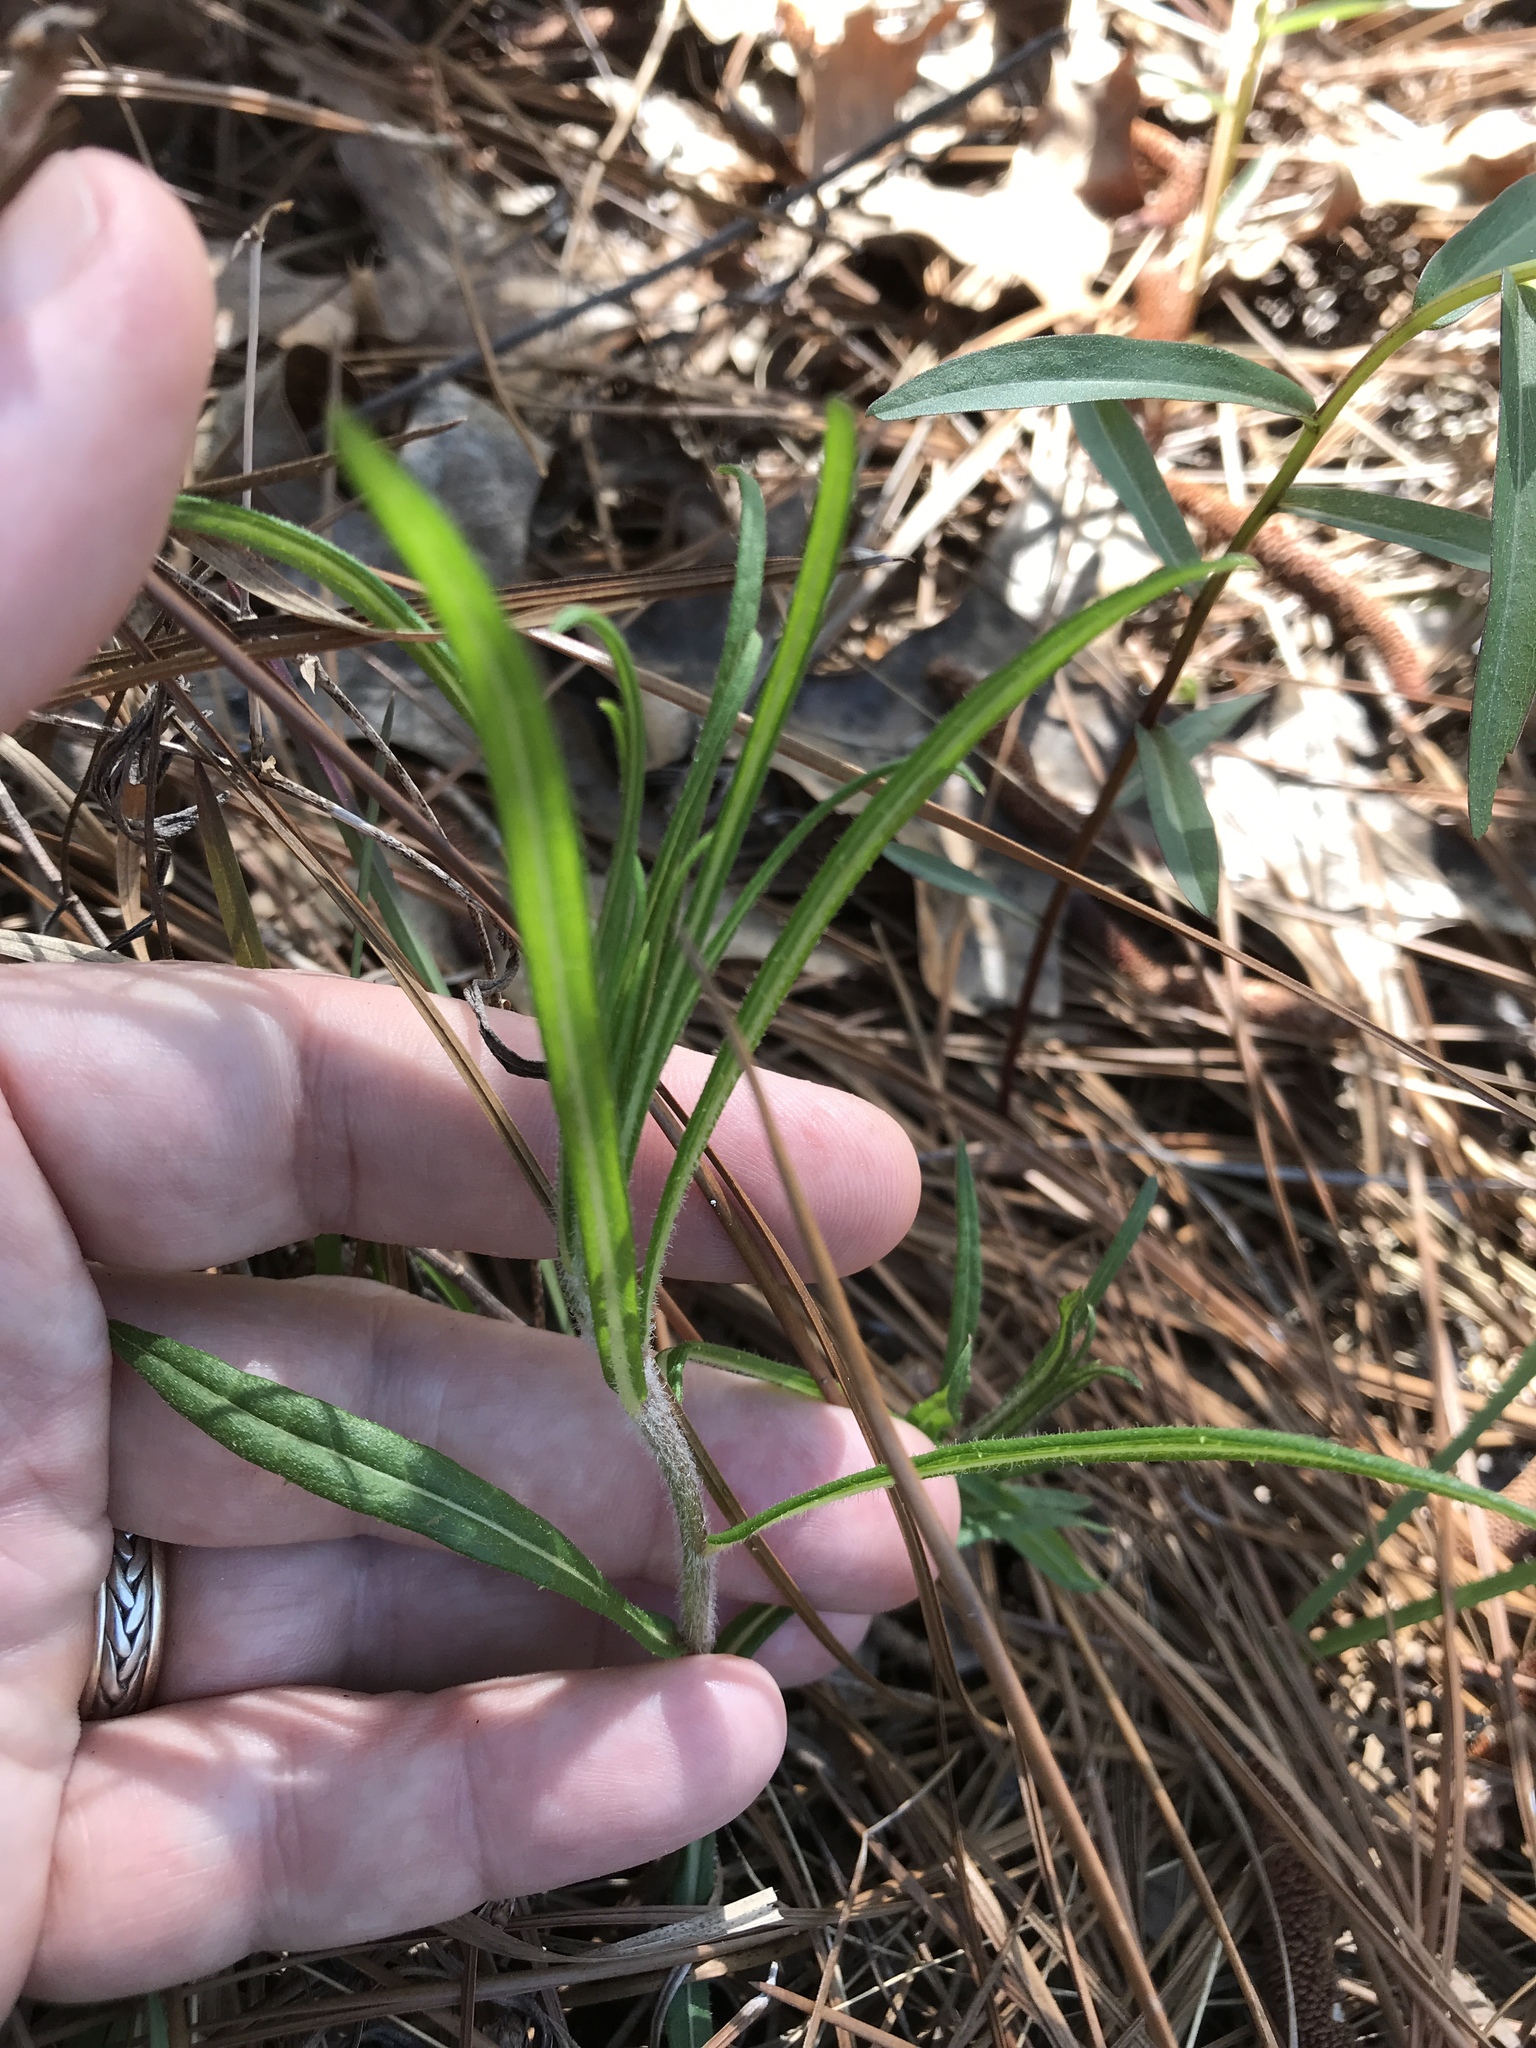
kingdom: Plantae
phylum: Tracheophyta
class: Magnoliopsida
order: Asterales
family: Asteraceae
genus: Vernonia
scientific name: Vernonia angustifolia
